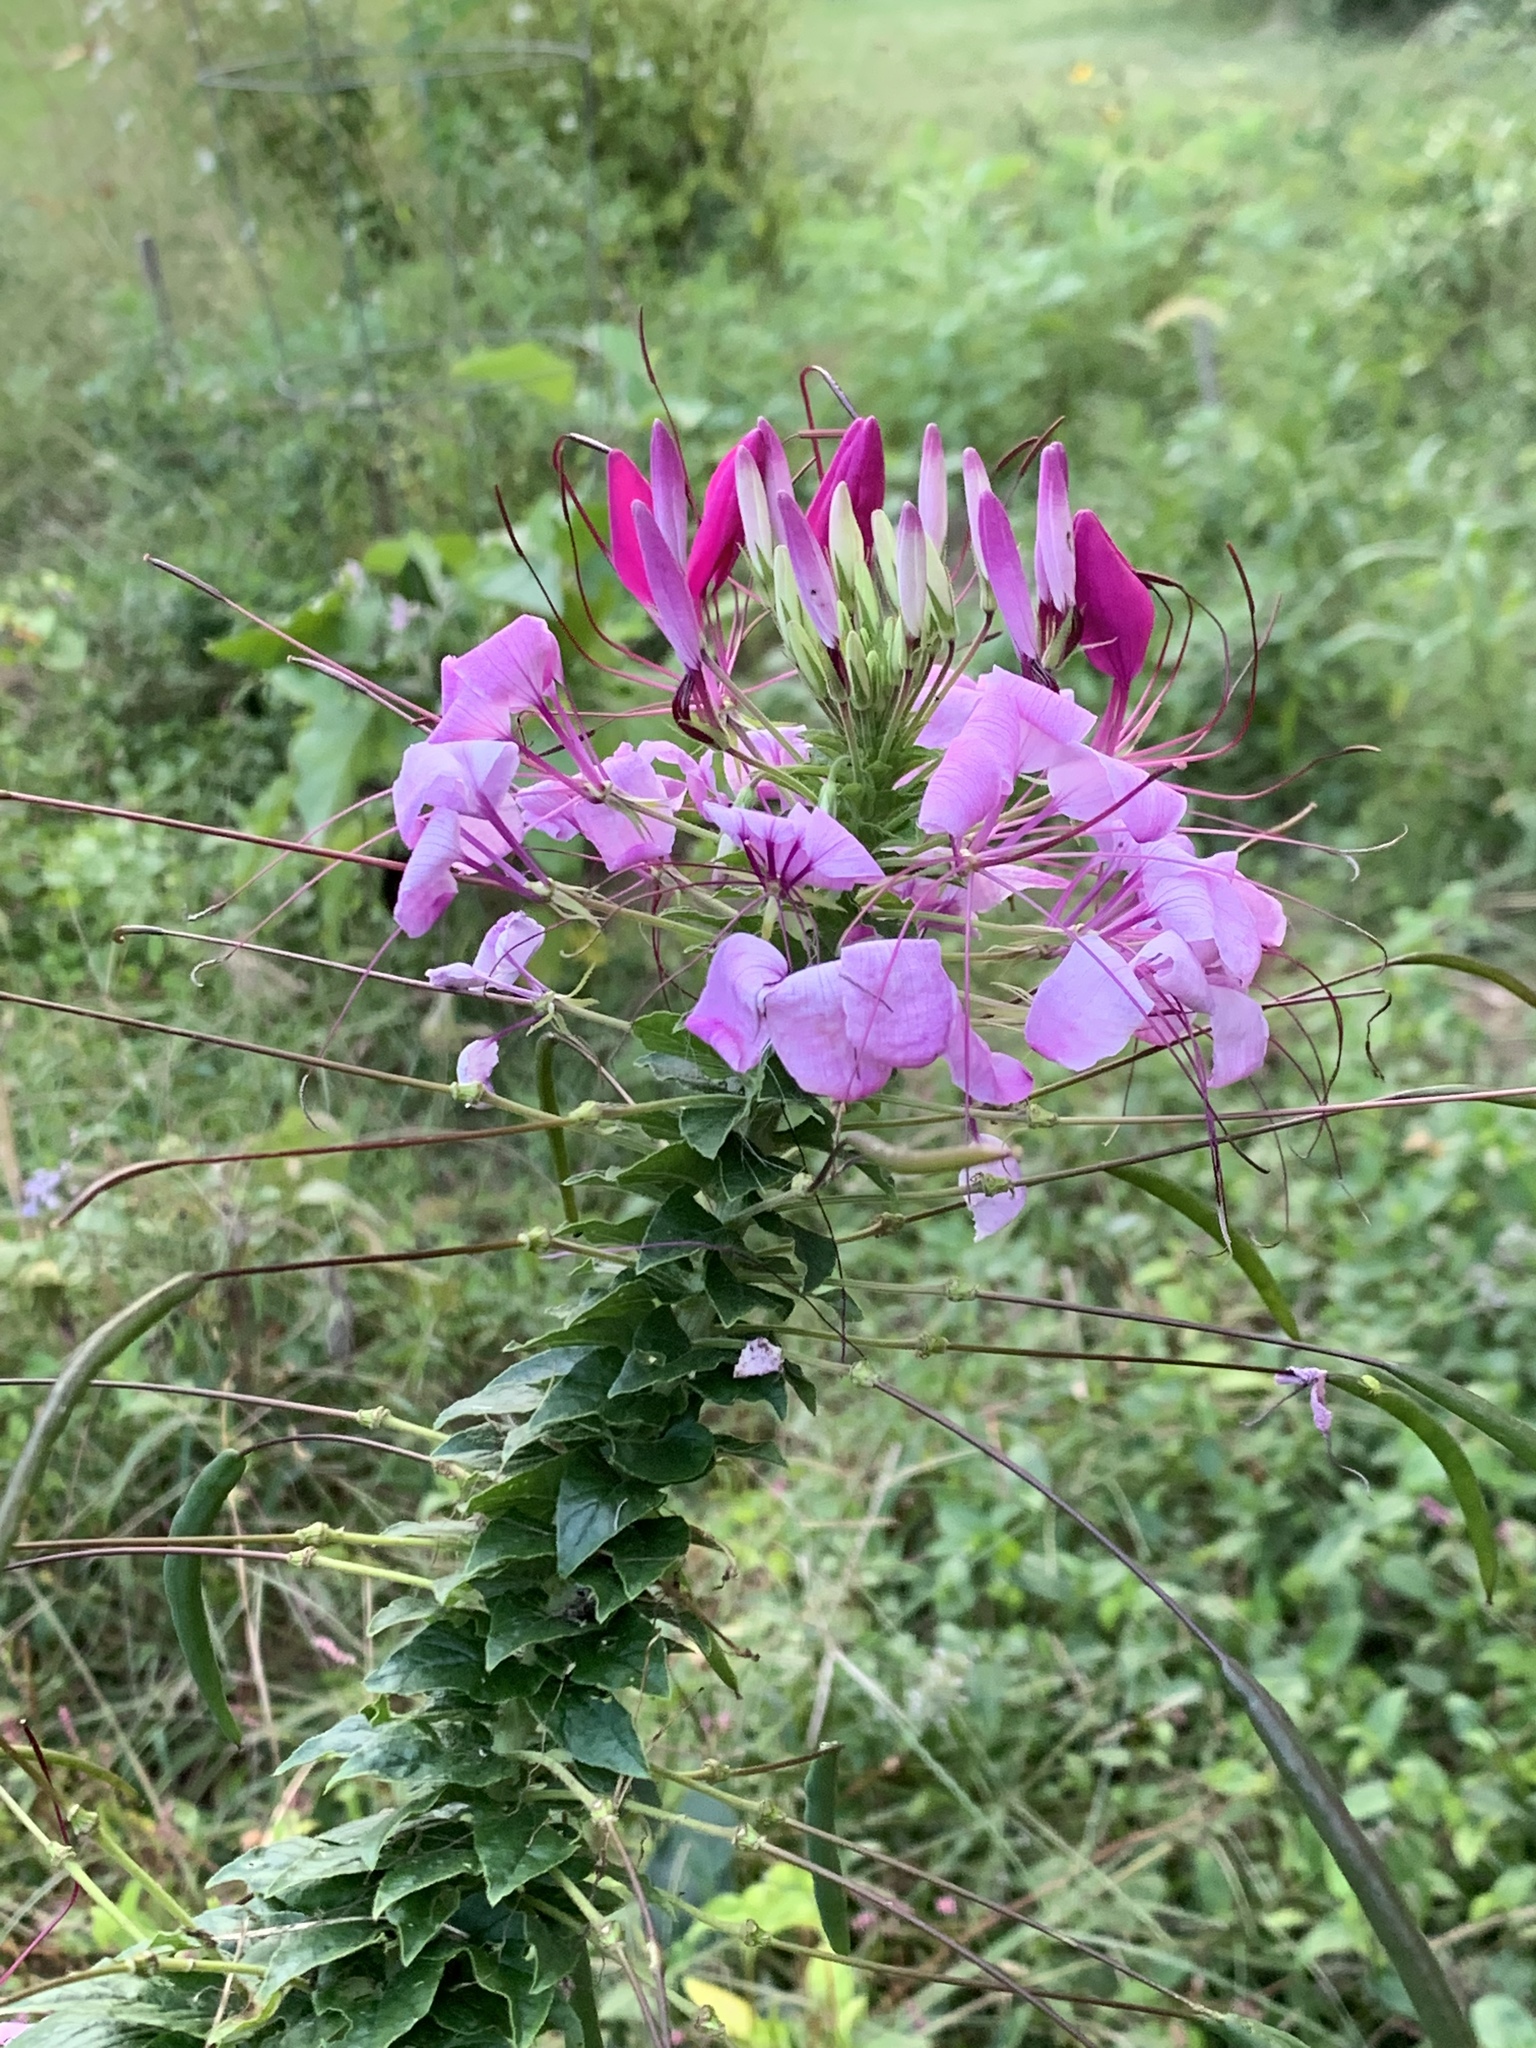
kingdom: Plantae
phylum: Tracheophyta
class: Magnoliopsida
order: Brassicales
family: Cleomaceae
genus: Tarenaya
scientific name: Tarenaya houtteana
